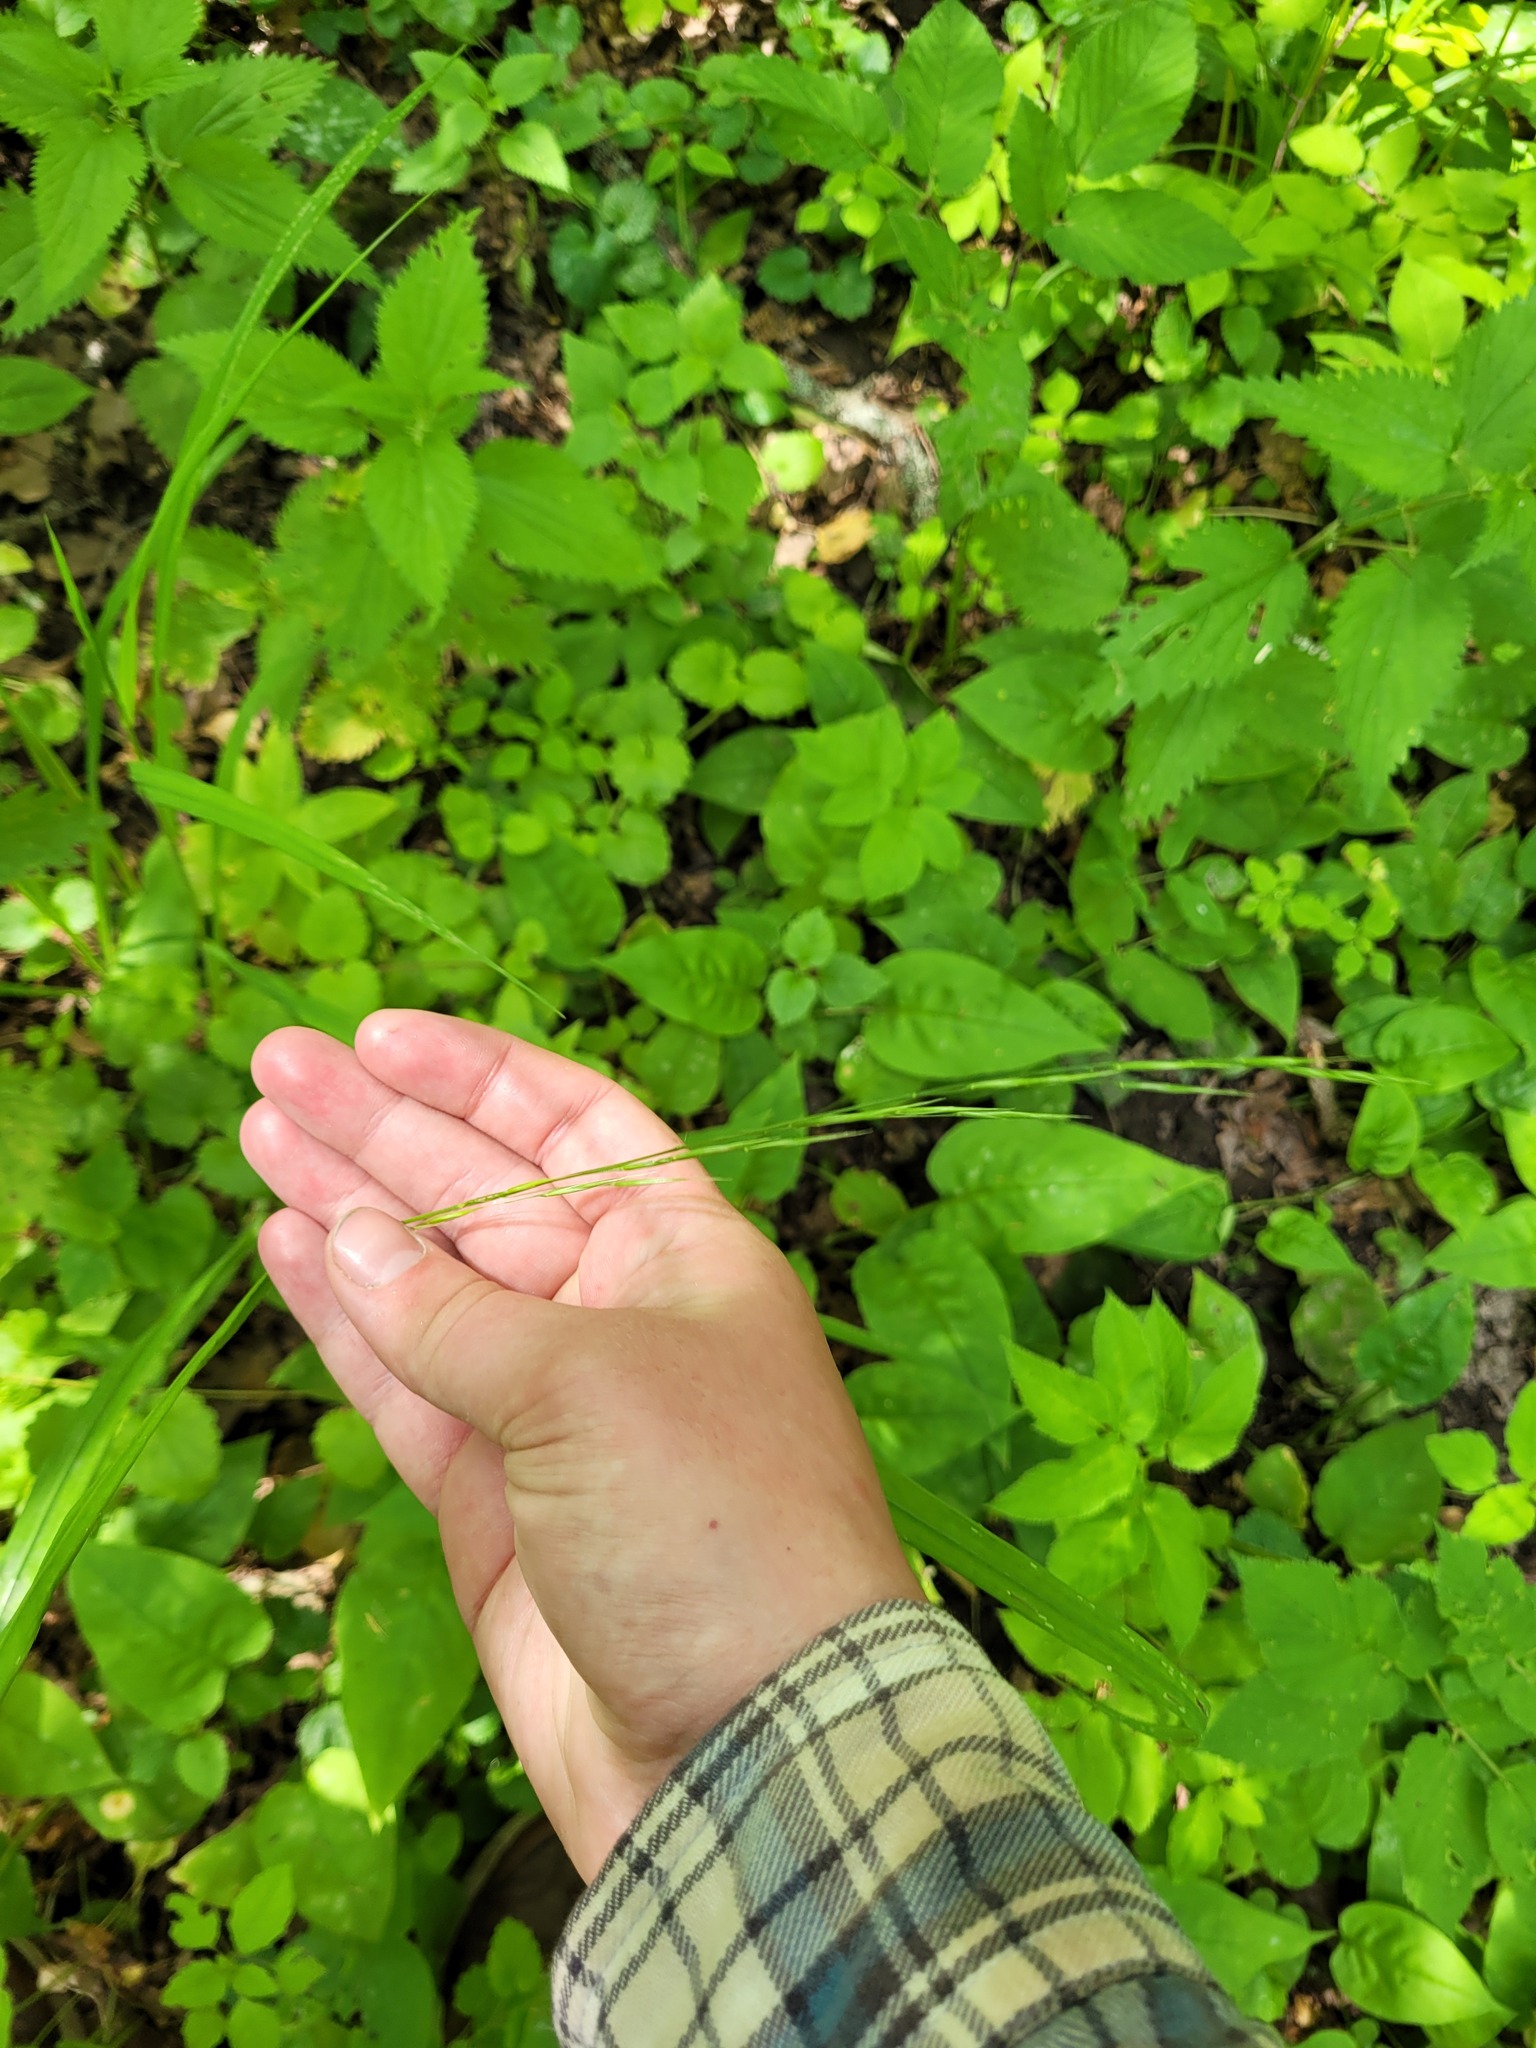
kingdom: Plantae
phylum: Tracheophyta
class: Liliopsida
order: Poales
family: Poaceae
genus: Bromus
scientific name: Bromus benekenii
